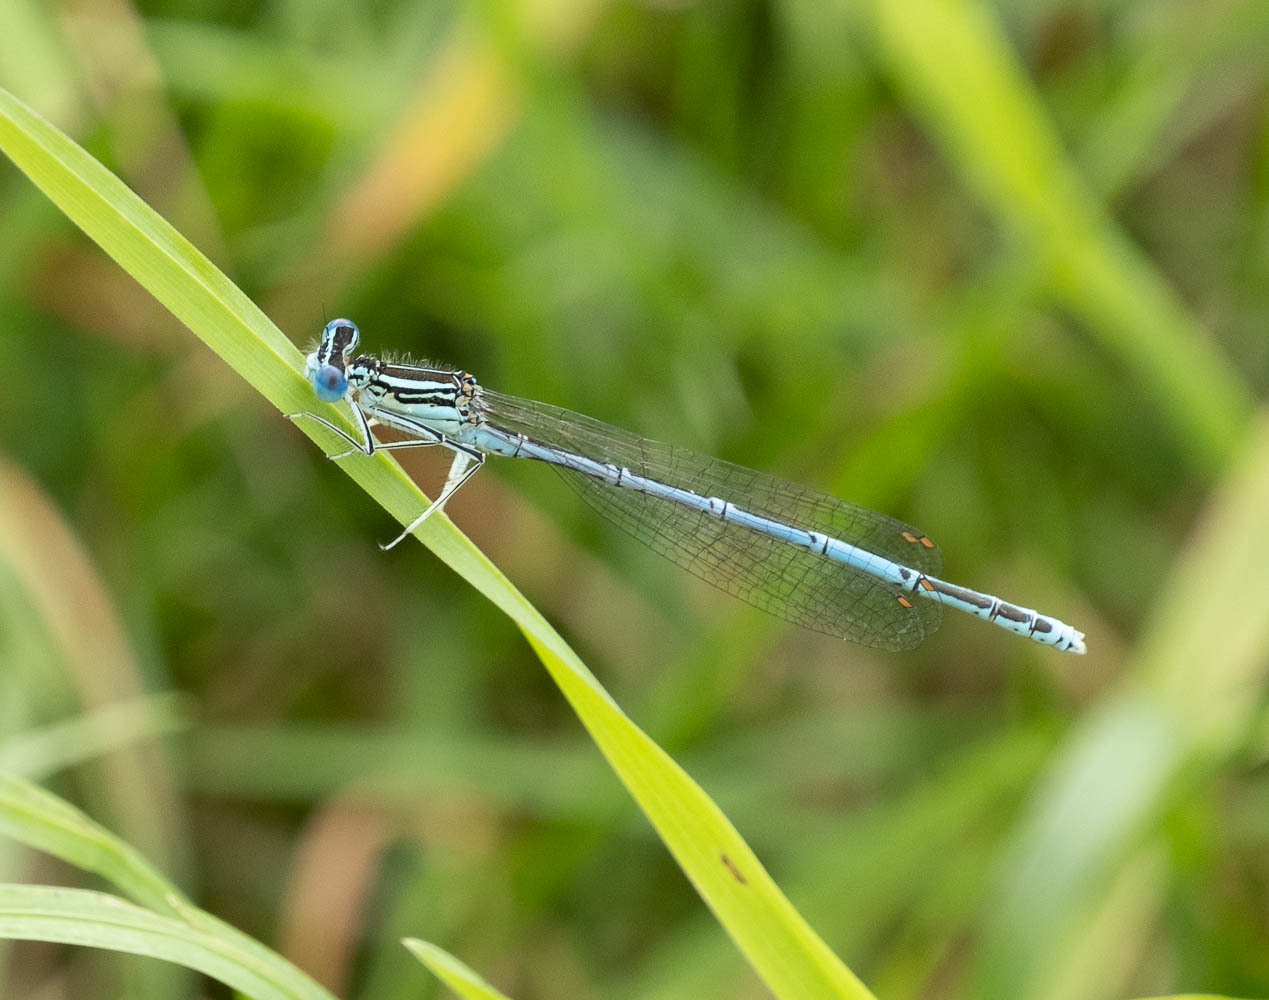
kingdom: Animalia
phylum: Arthropoda
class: Insecta
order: Odonata
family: Platycnemididae
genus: Platycnemis
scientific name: Platycnemis pennipes
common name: White-legged damselfly
